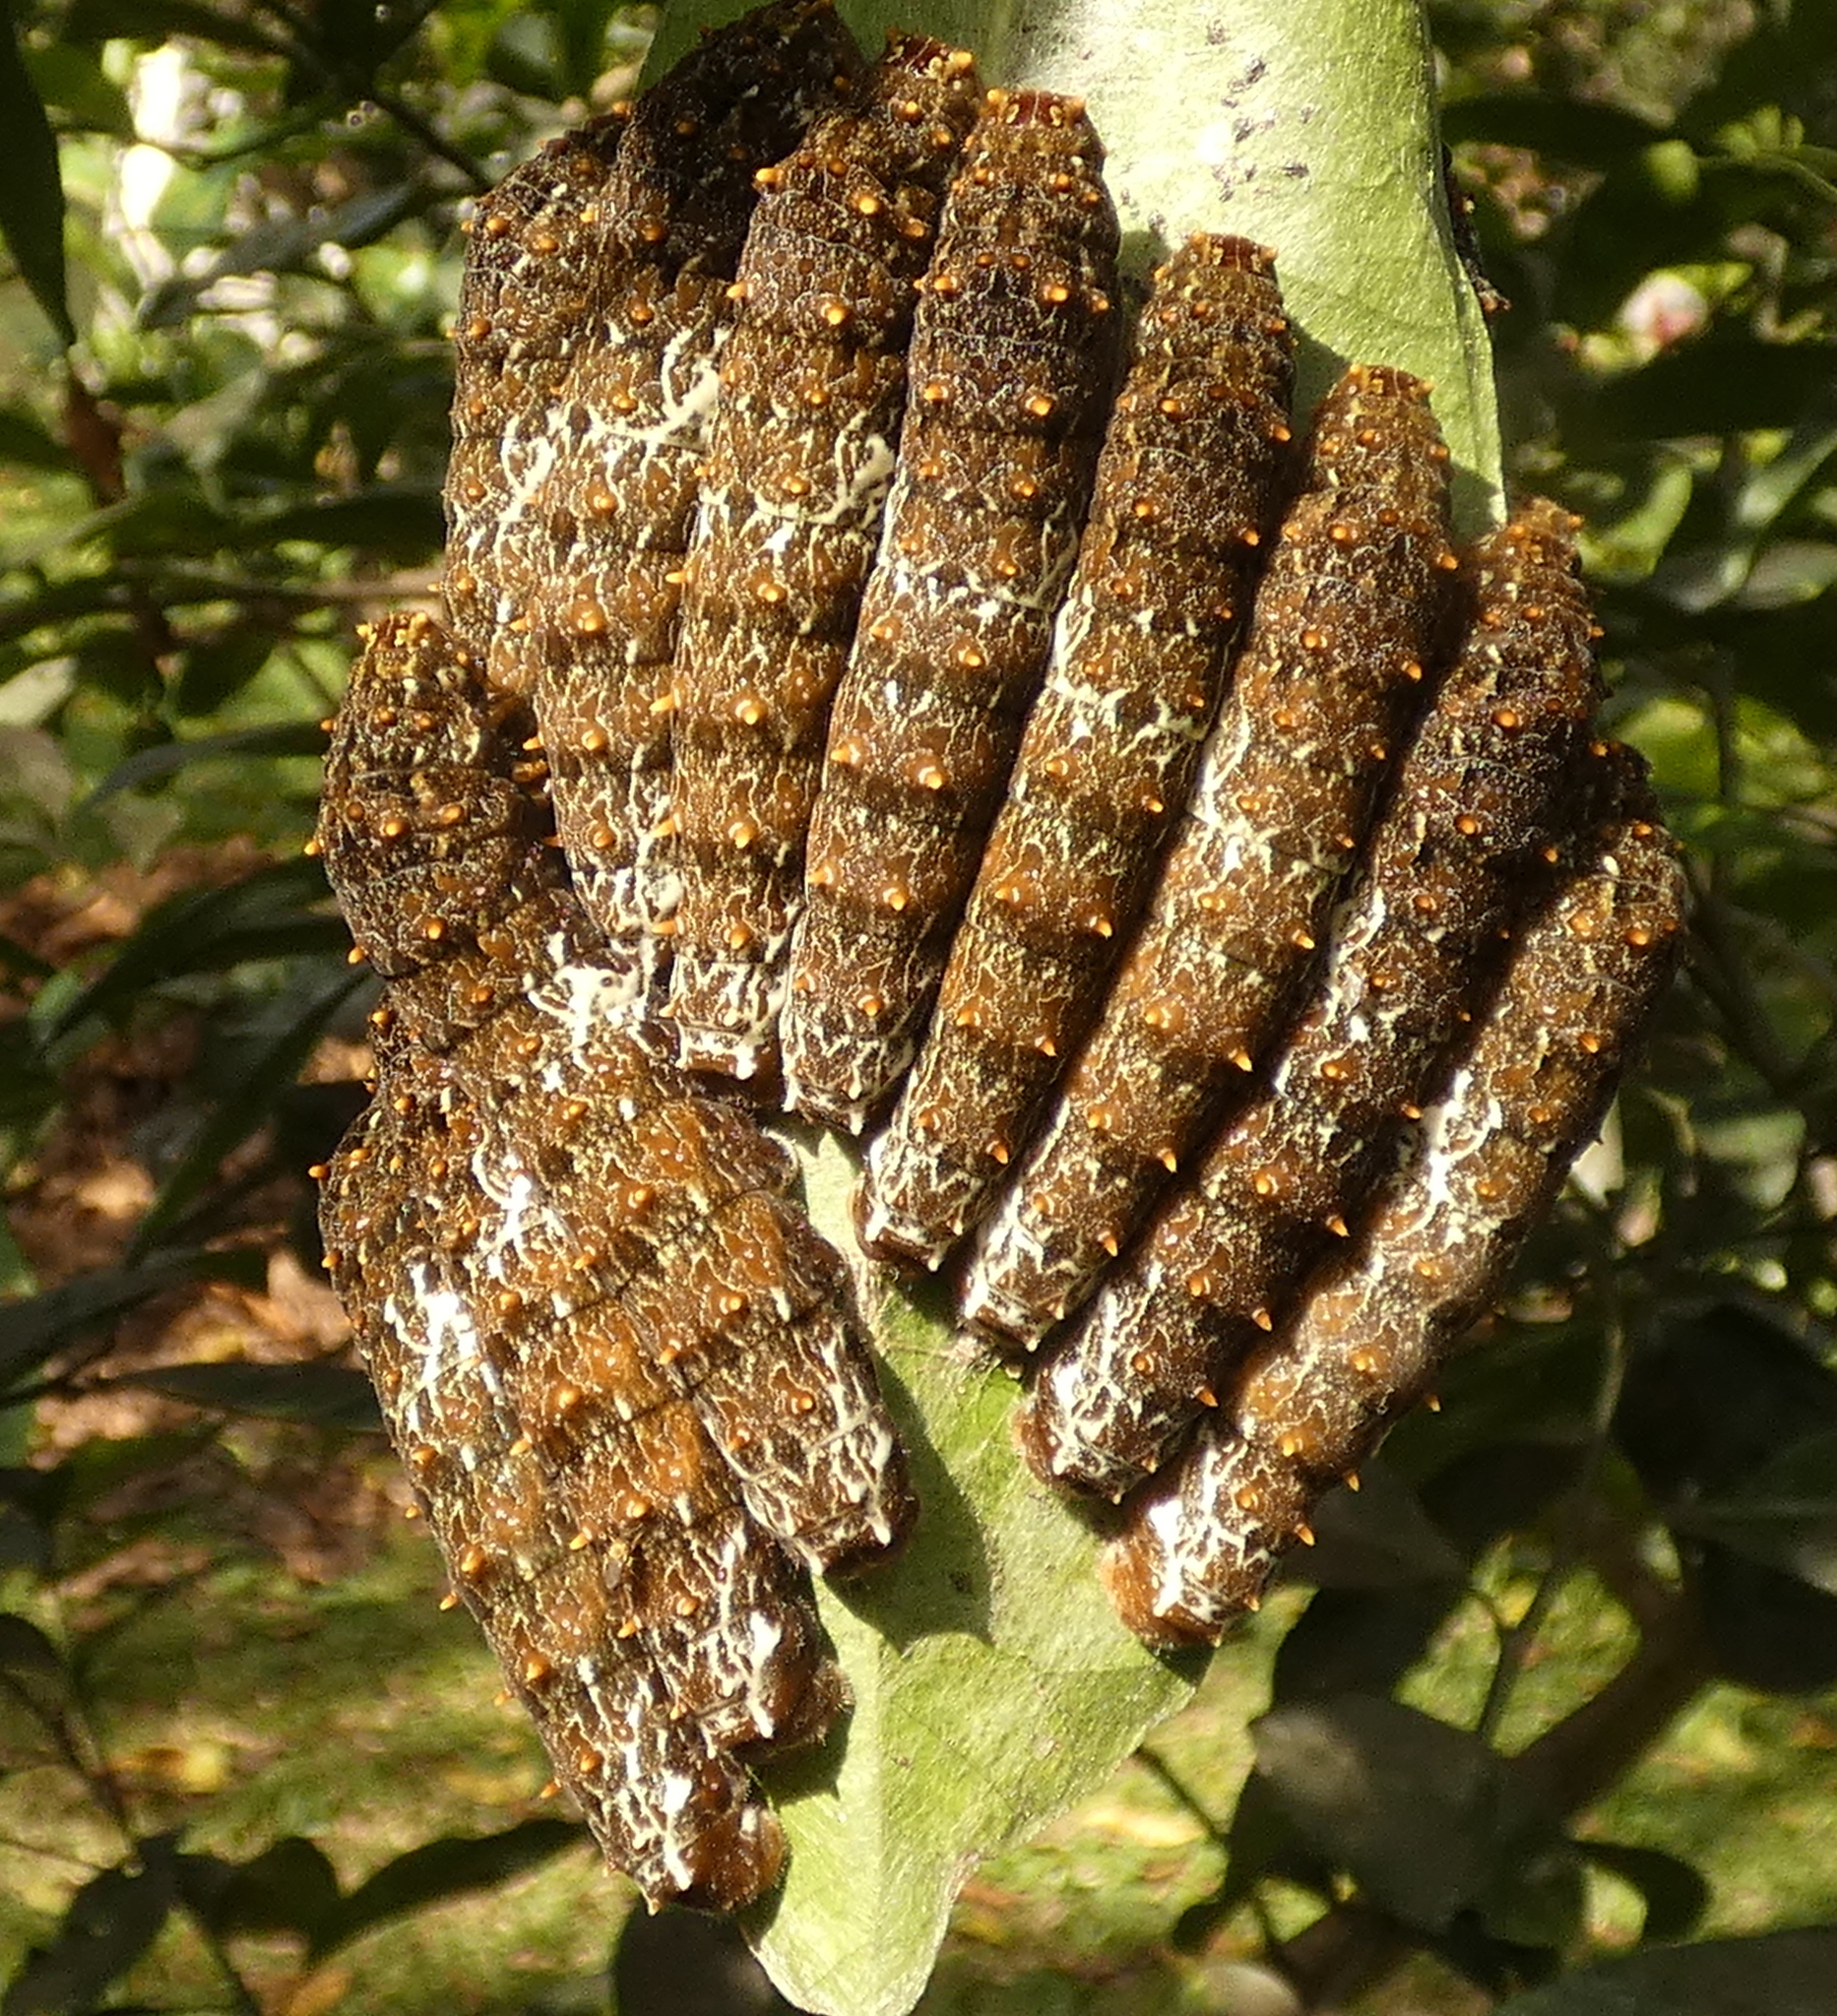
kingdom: Animalia
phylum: Arthropoda
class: Insecta
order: Lepidoptera
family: Papilionidae
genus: Papilio
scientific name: Papilio anchisiades
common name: Idaes swallowtail
